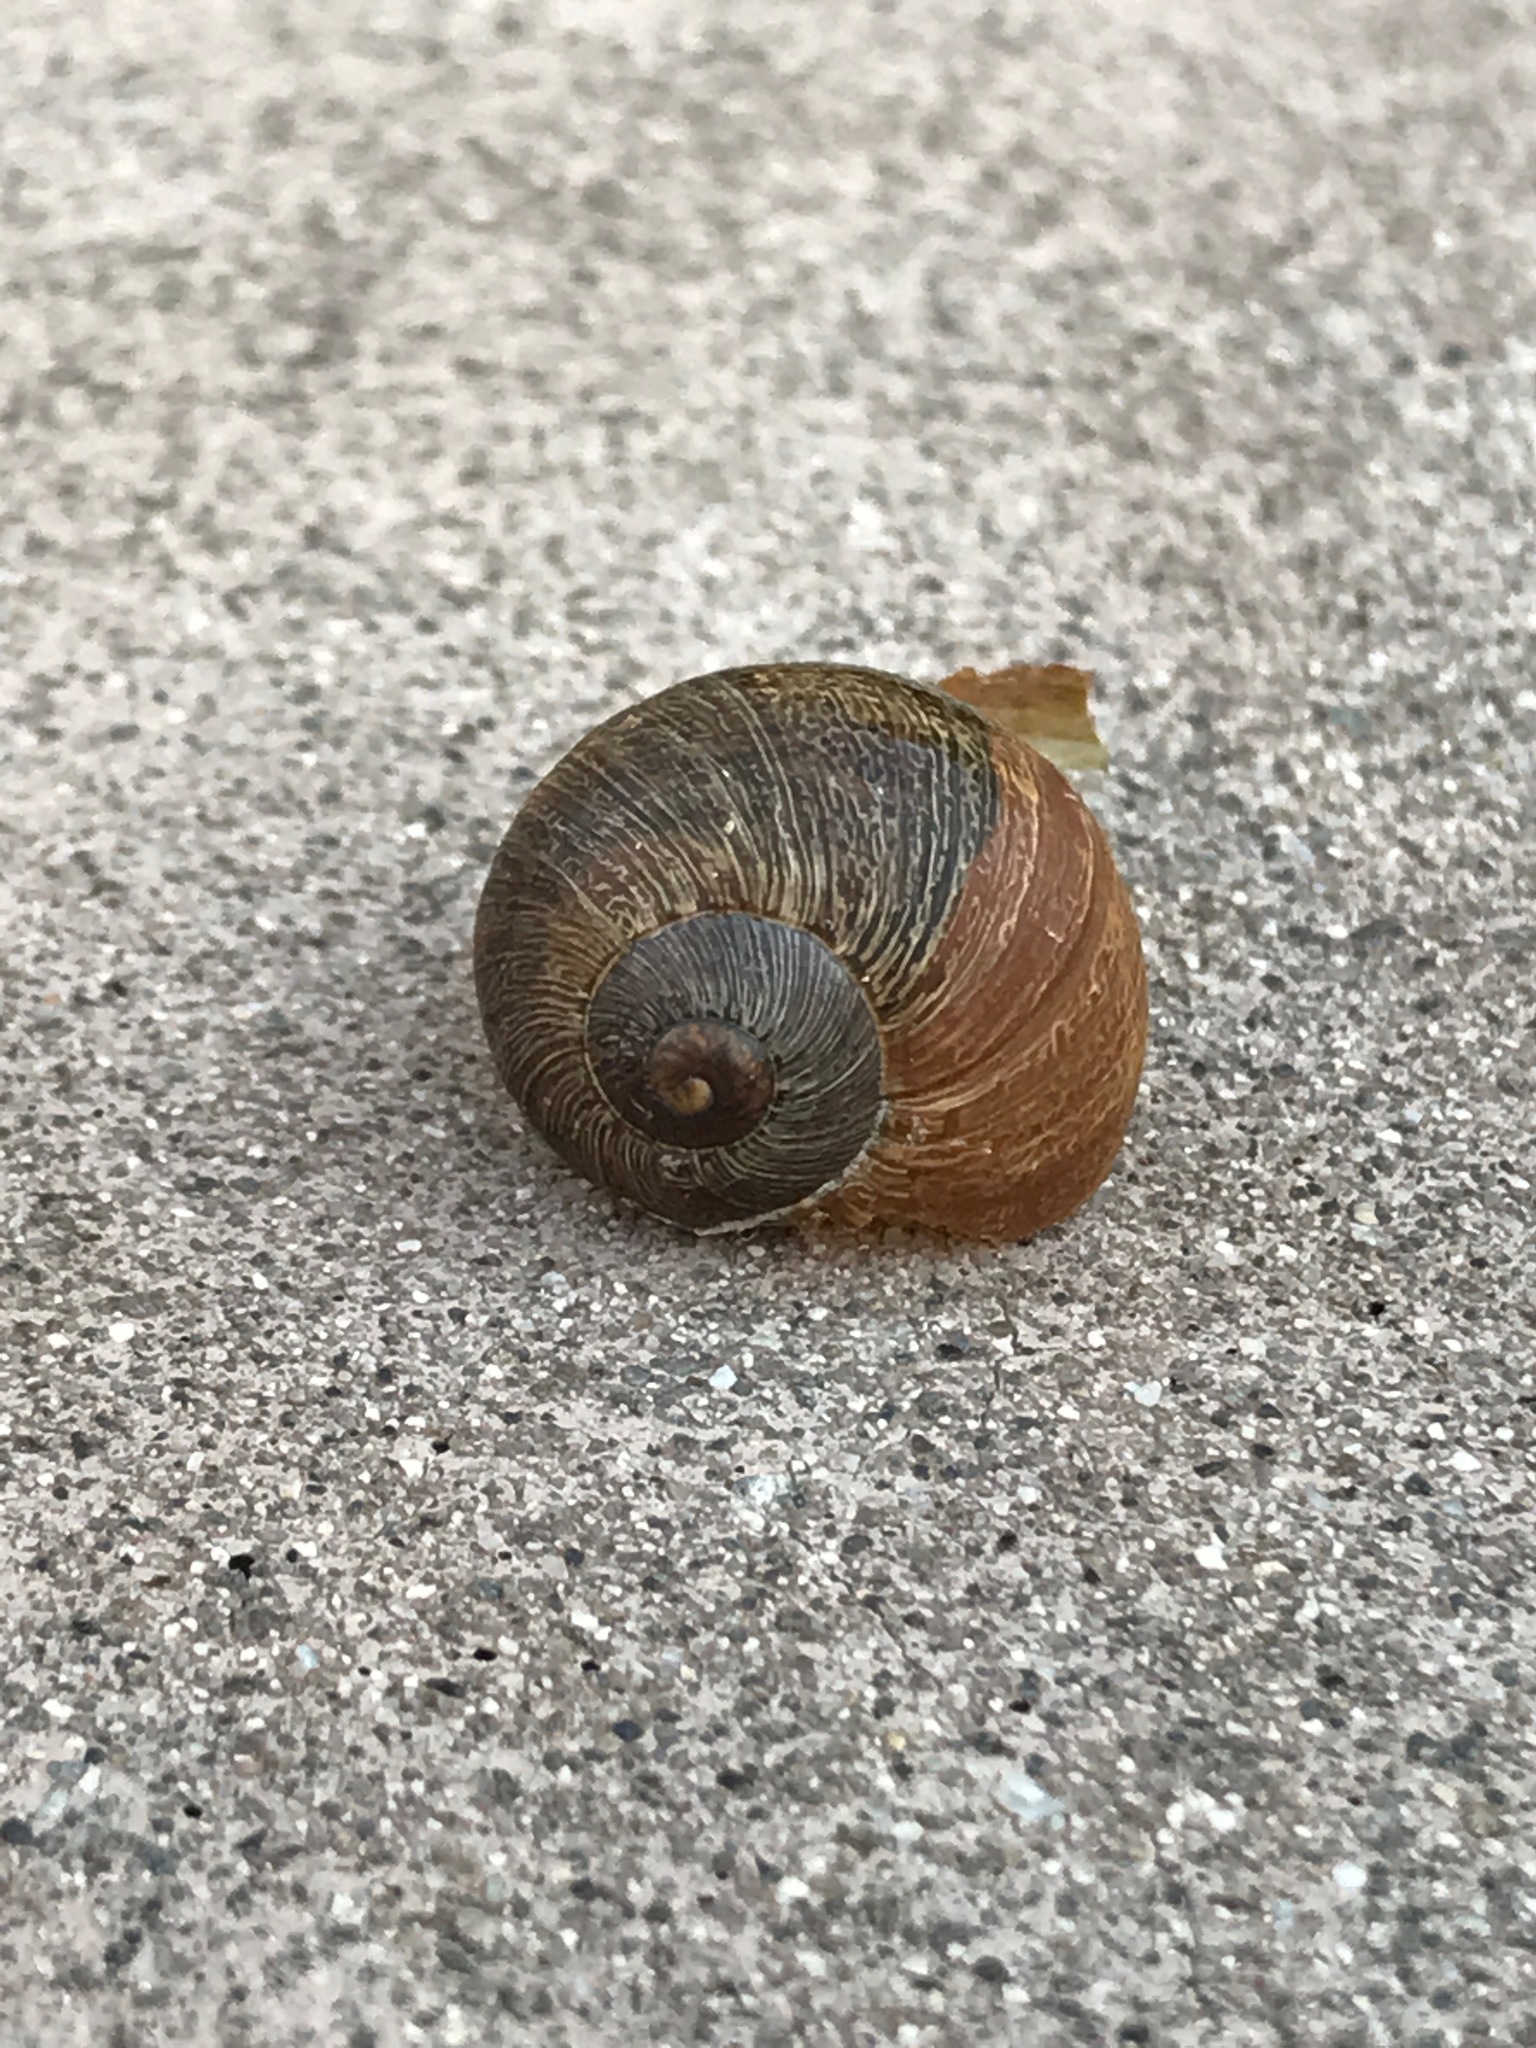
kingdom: Animalia
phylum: Mollusca
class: Gastropoda
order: Stylommatophora
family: Helicidae
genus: Cornu
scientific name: Cornu aspersum
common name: Brown garden snail
